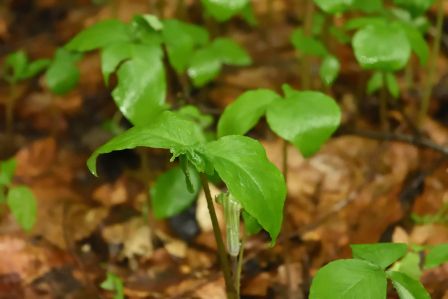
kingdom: Plantae
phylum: Tracheophyta
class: Liliopsida
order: Alismatales
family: Araceae
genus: Arisaema
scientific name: Arisaema triphyllum
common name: Jack-in-the-pulpit
